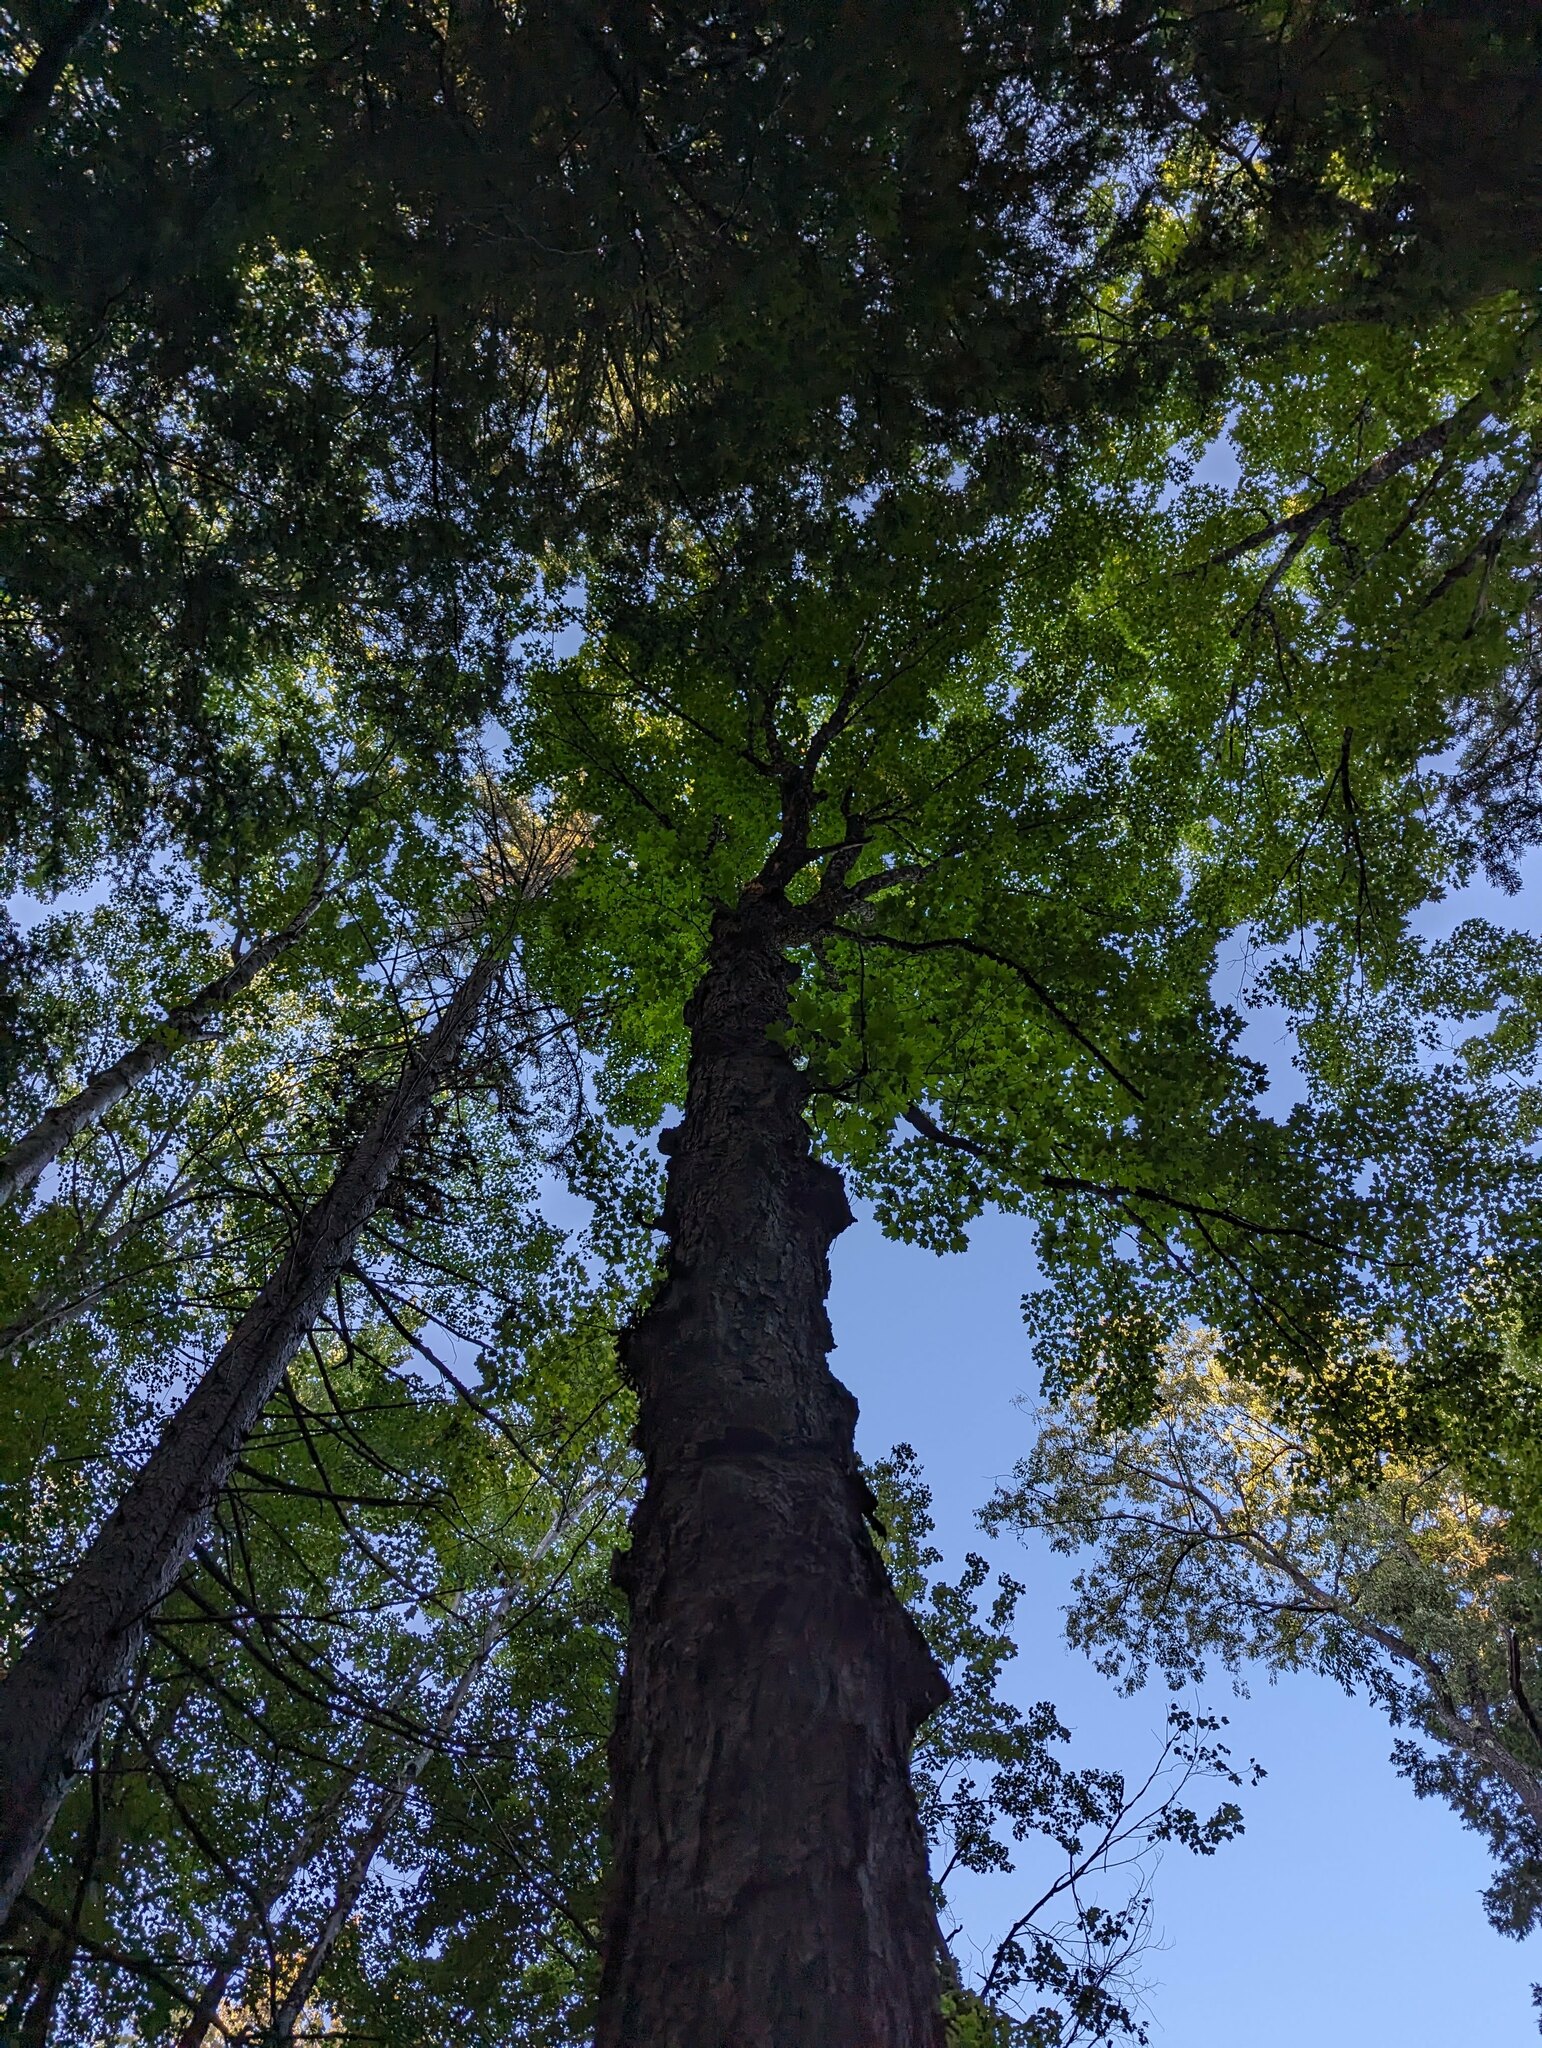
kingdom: Plantae
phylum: Tracheophyta
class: Magnoliopsida
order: Sapindales
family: Sapindaceae
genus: Acer
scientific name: Acer saccharum
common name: Sugar maple
